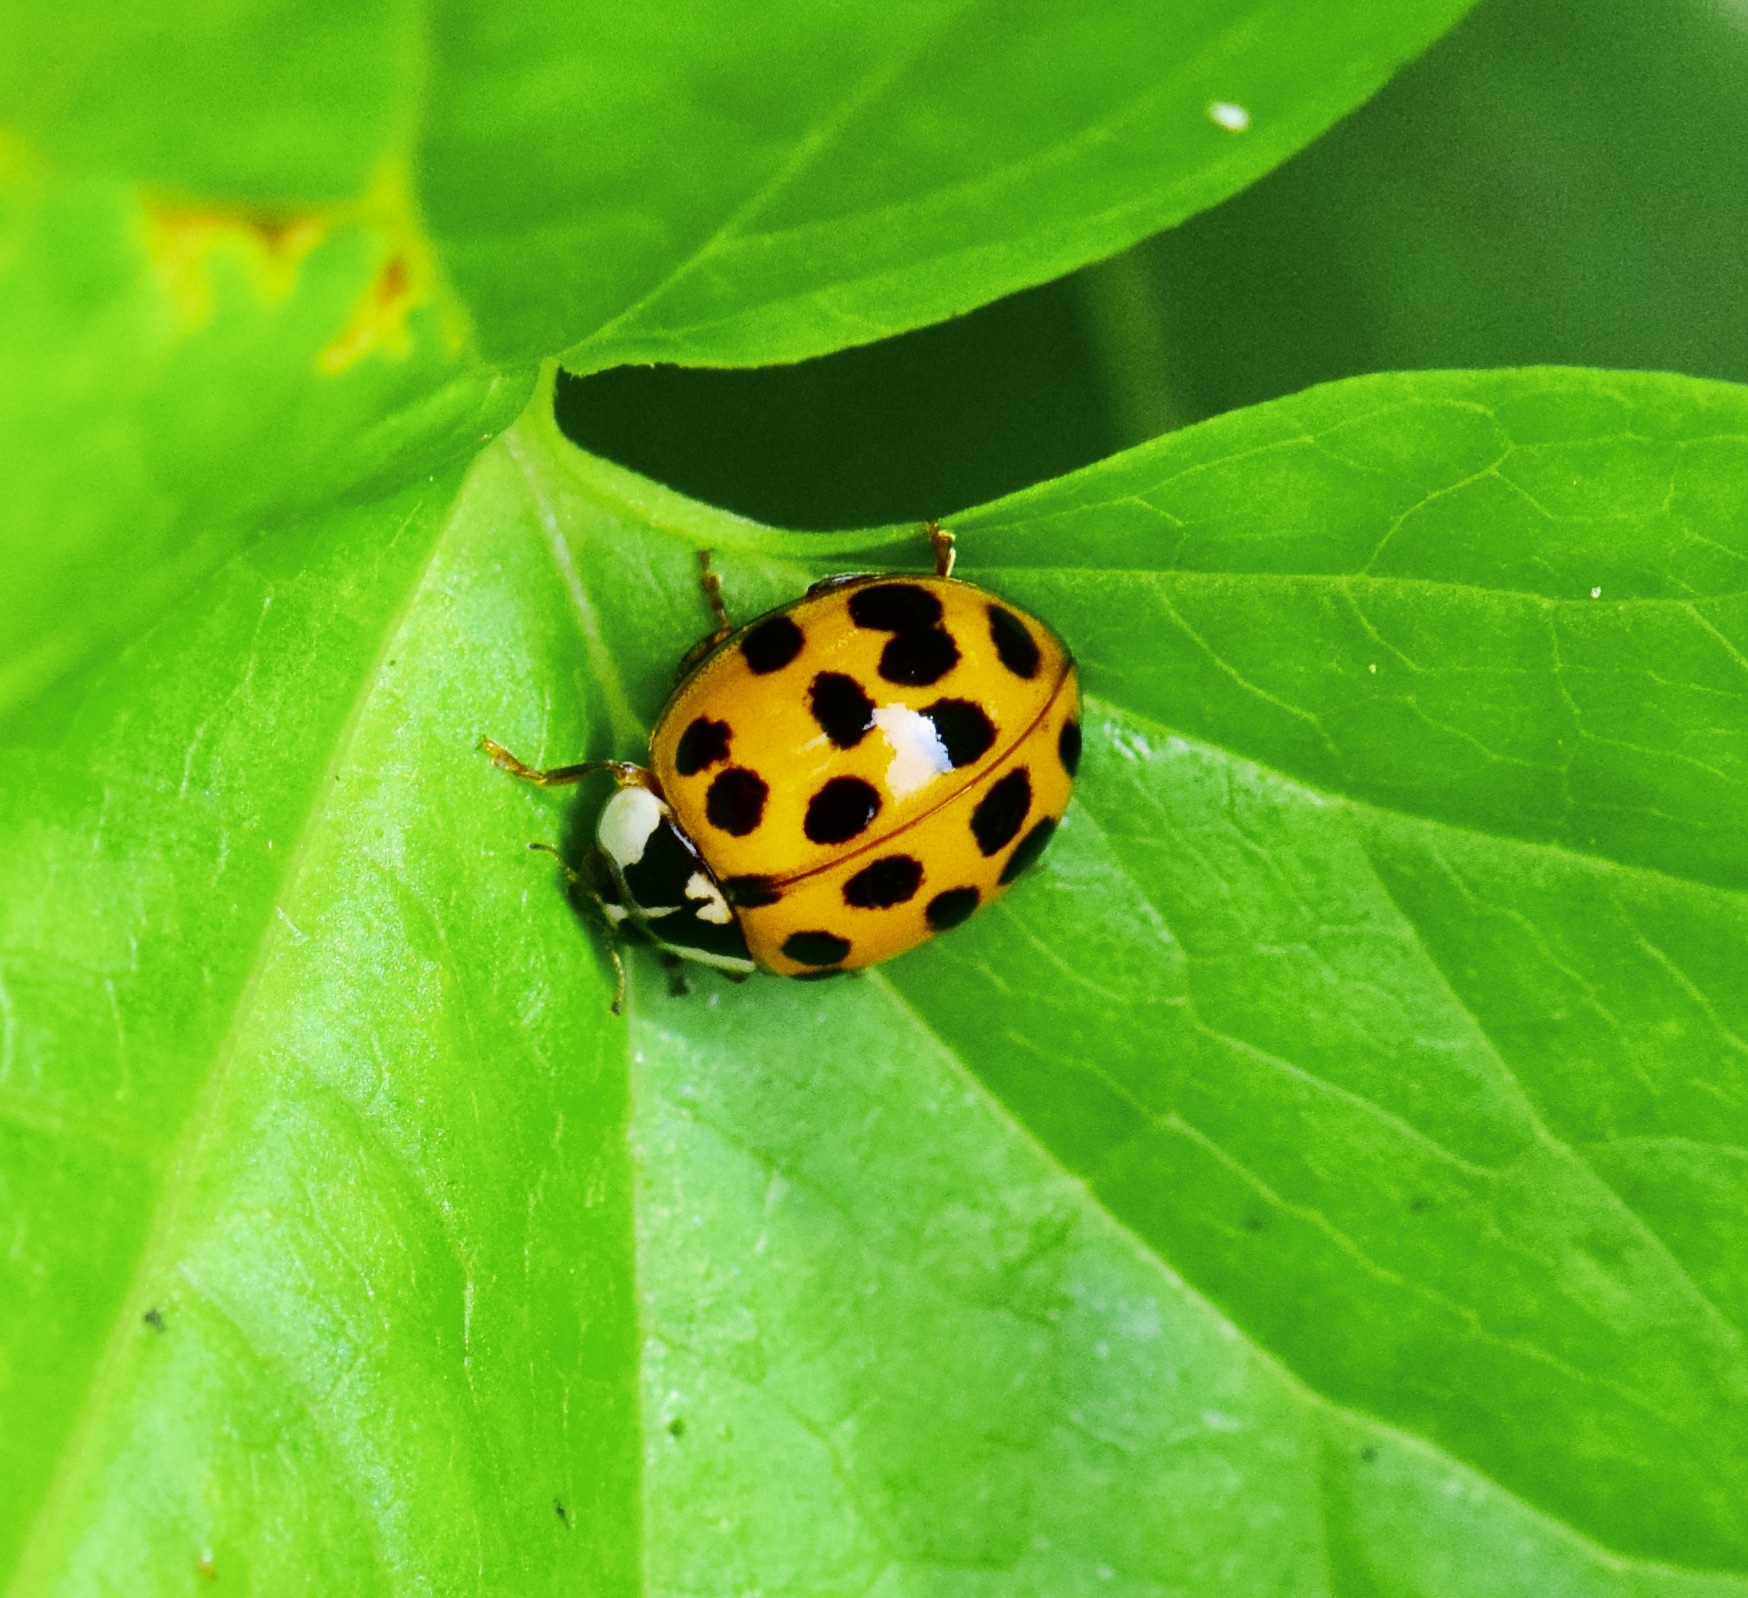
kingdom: Animalia
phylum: Arthropoda
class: Insecta
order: Coleoptera
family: Coccinellidae
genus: Harmonia
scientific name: Harmonia axyridis
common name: Harlequin ladybird
